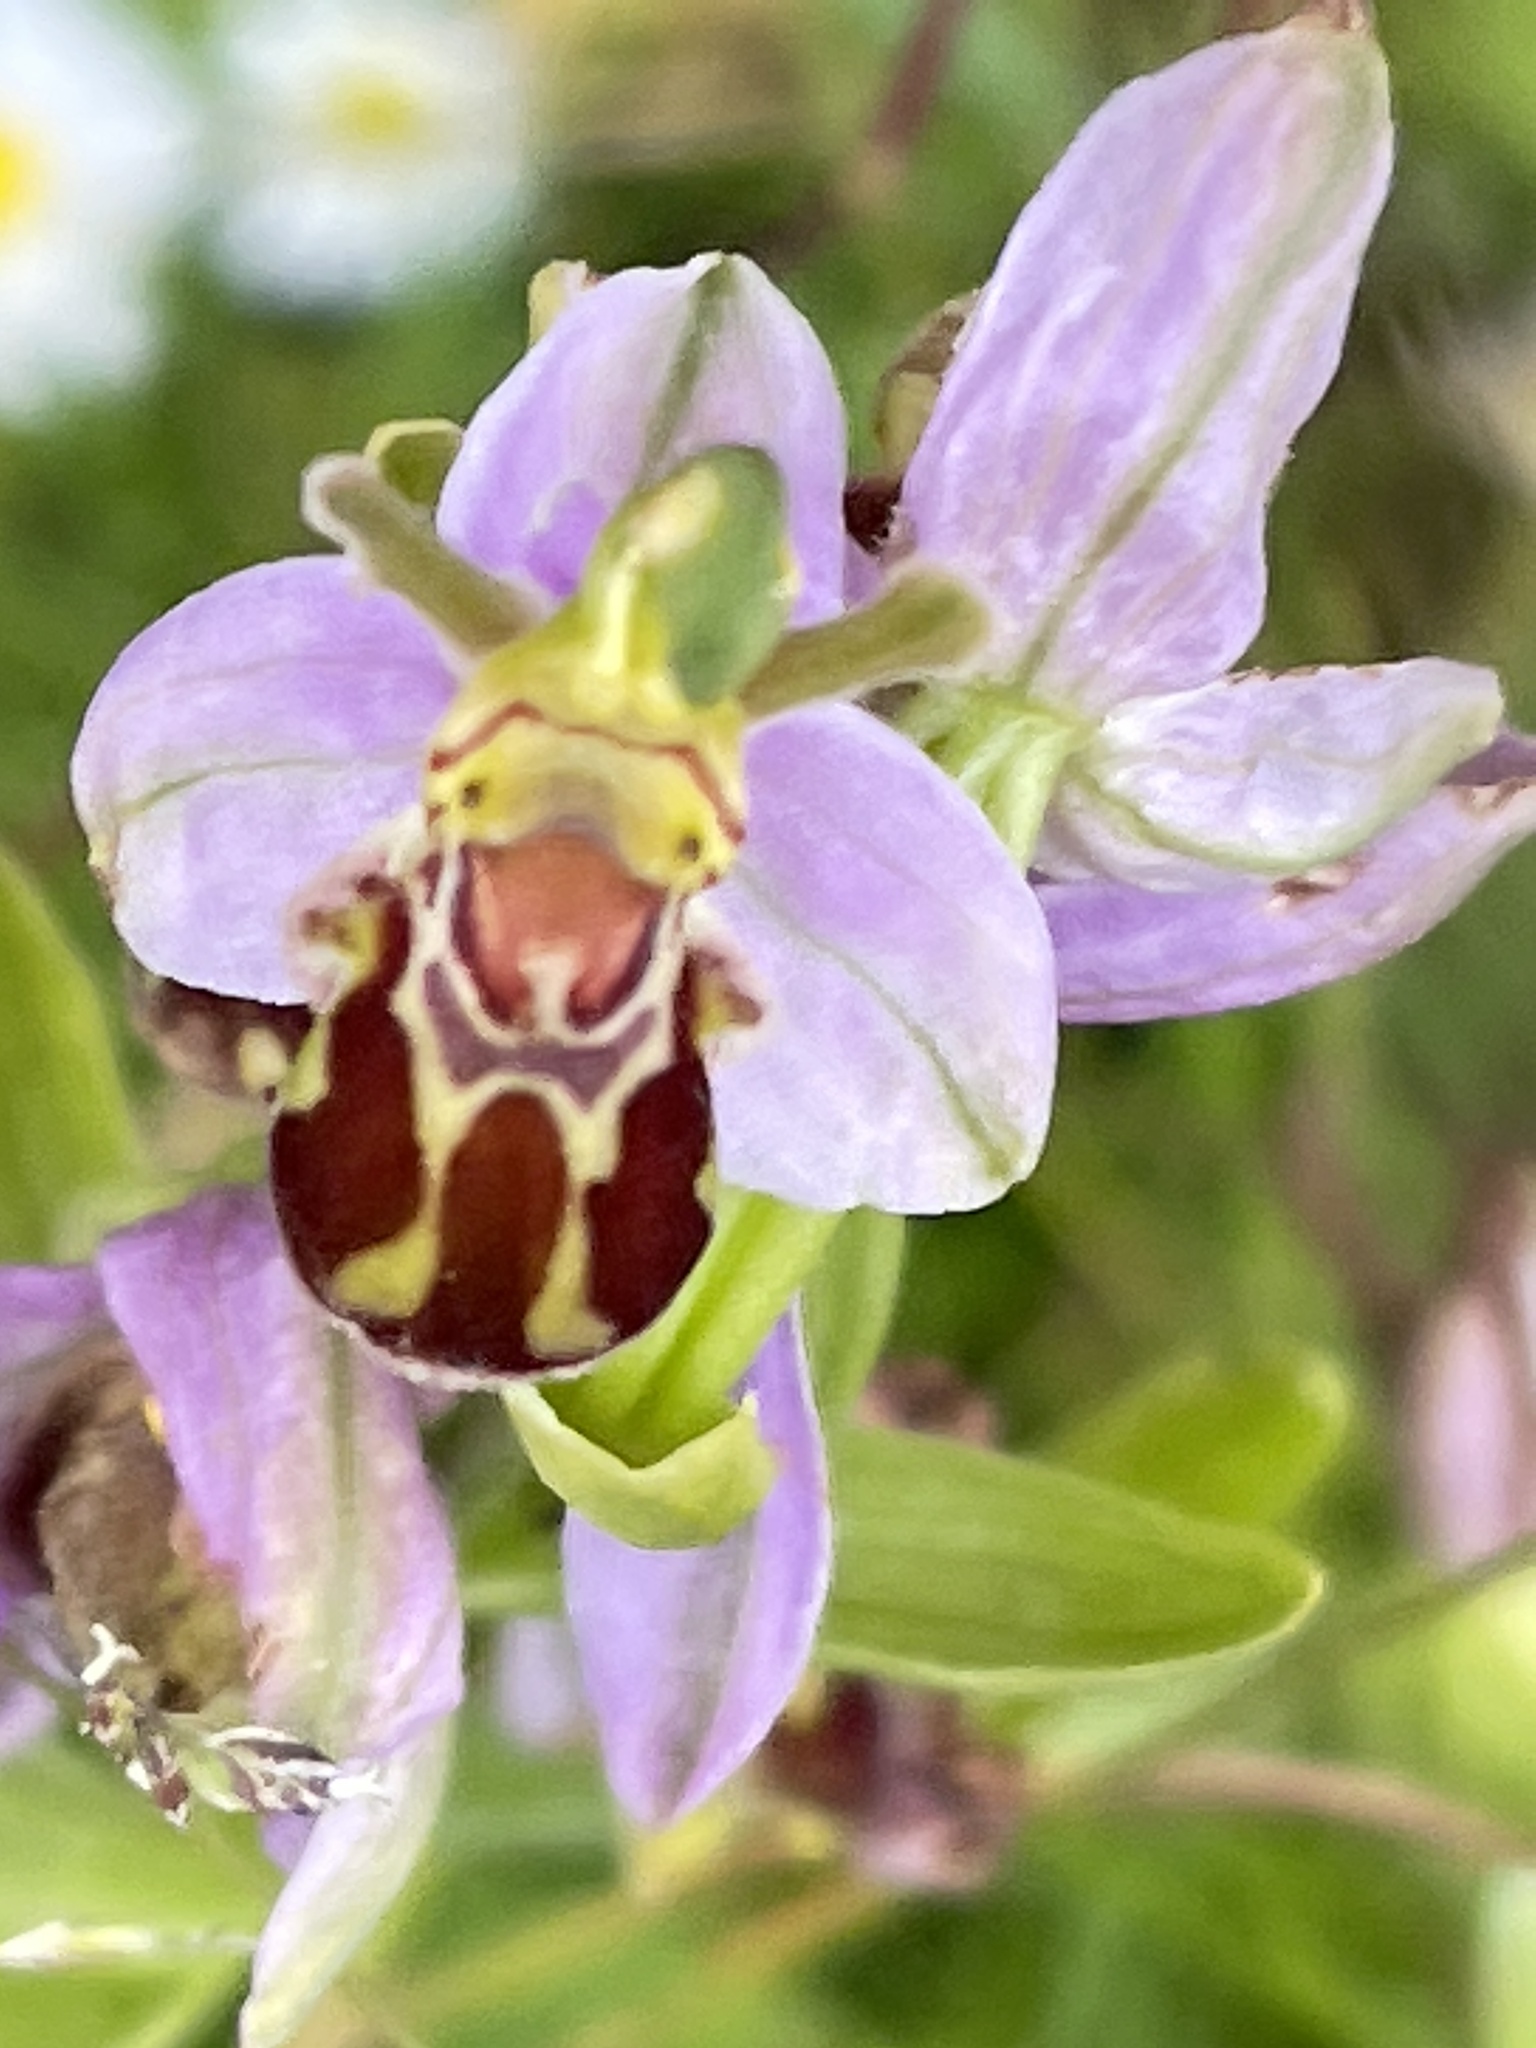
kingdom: Plantae
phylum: Tracheophyta
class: Liliopsida
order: Asparagales
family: Orchidaceae
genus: Ophrys
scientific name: Ophrys apifera
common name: Bee orchid
